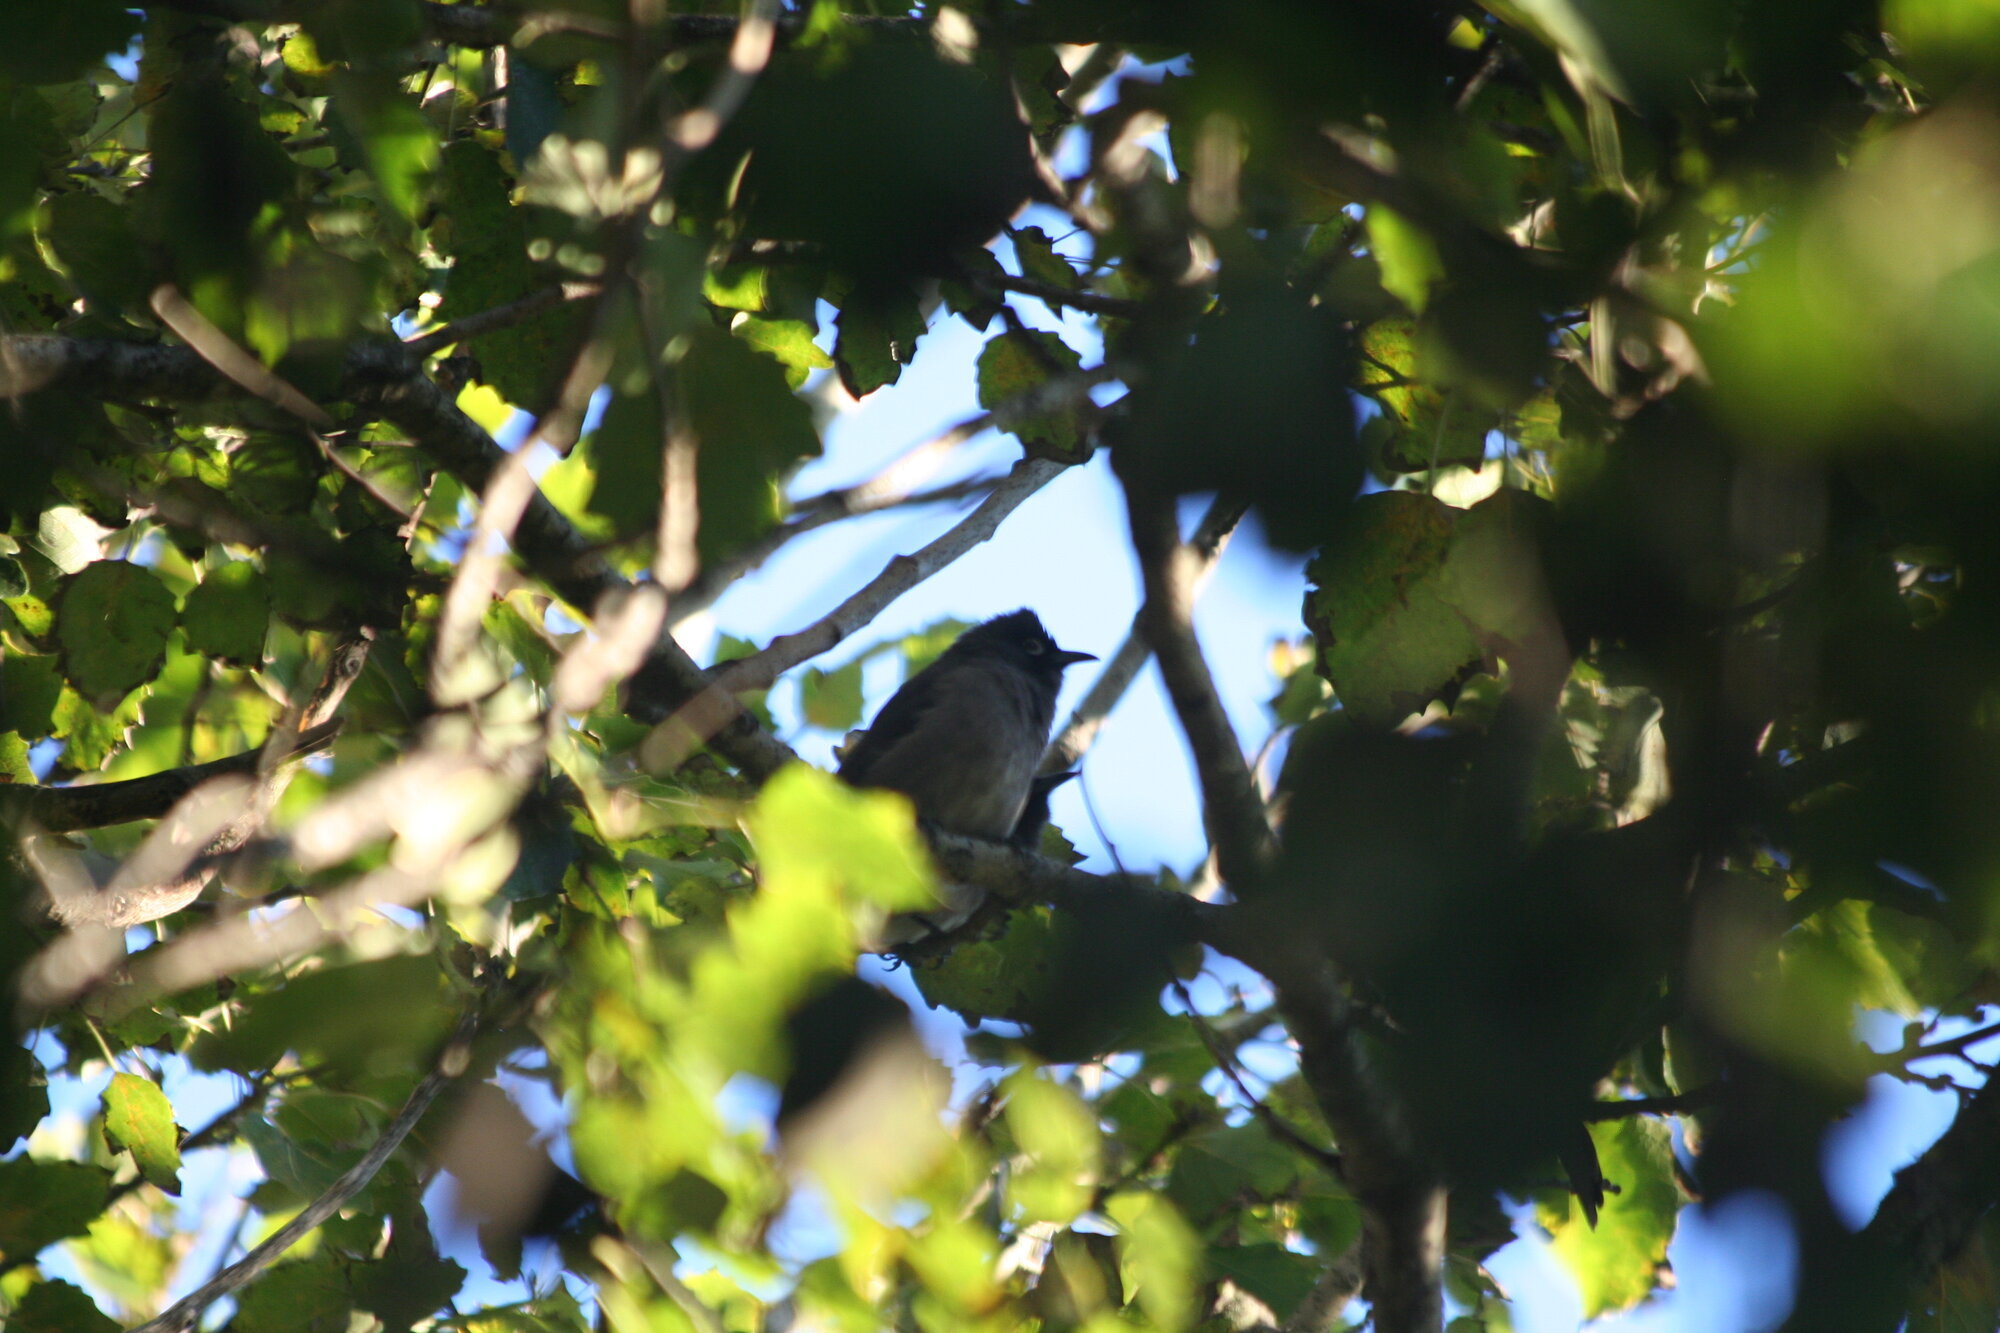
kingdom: Animalia
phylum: Chordata
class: Aves
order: Passeriformes
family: Pycnonotidae
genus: Pycnonotus
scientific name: Pycnonotus capensis
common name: Cape bulbul
